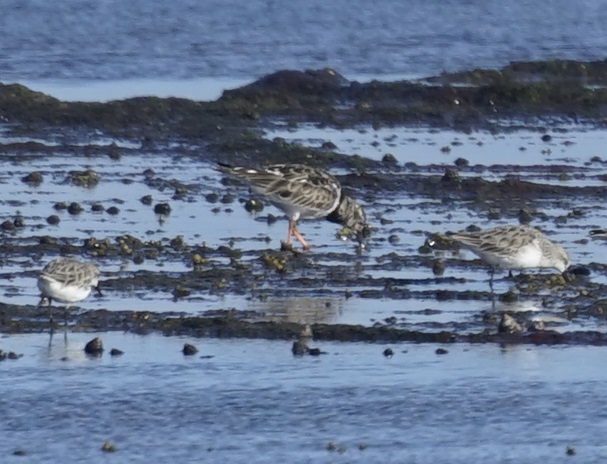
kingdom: Animalia
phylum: Chordata
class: Aves
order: Charadriiformes
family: Scolopacidae
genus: Arenaria
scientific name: Arenaria interpres
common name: Ruddy turnstone
